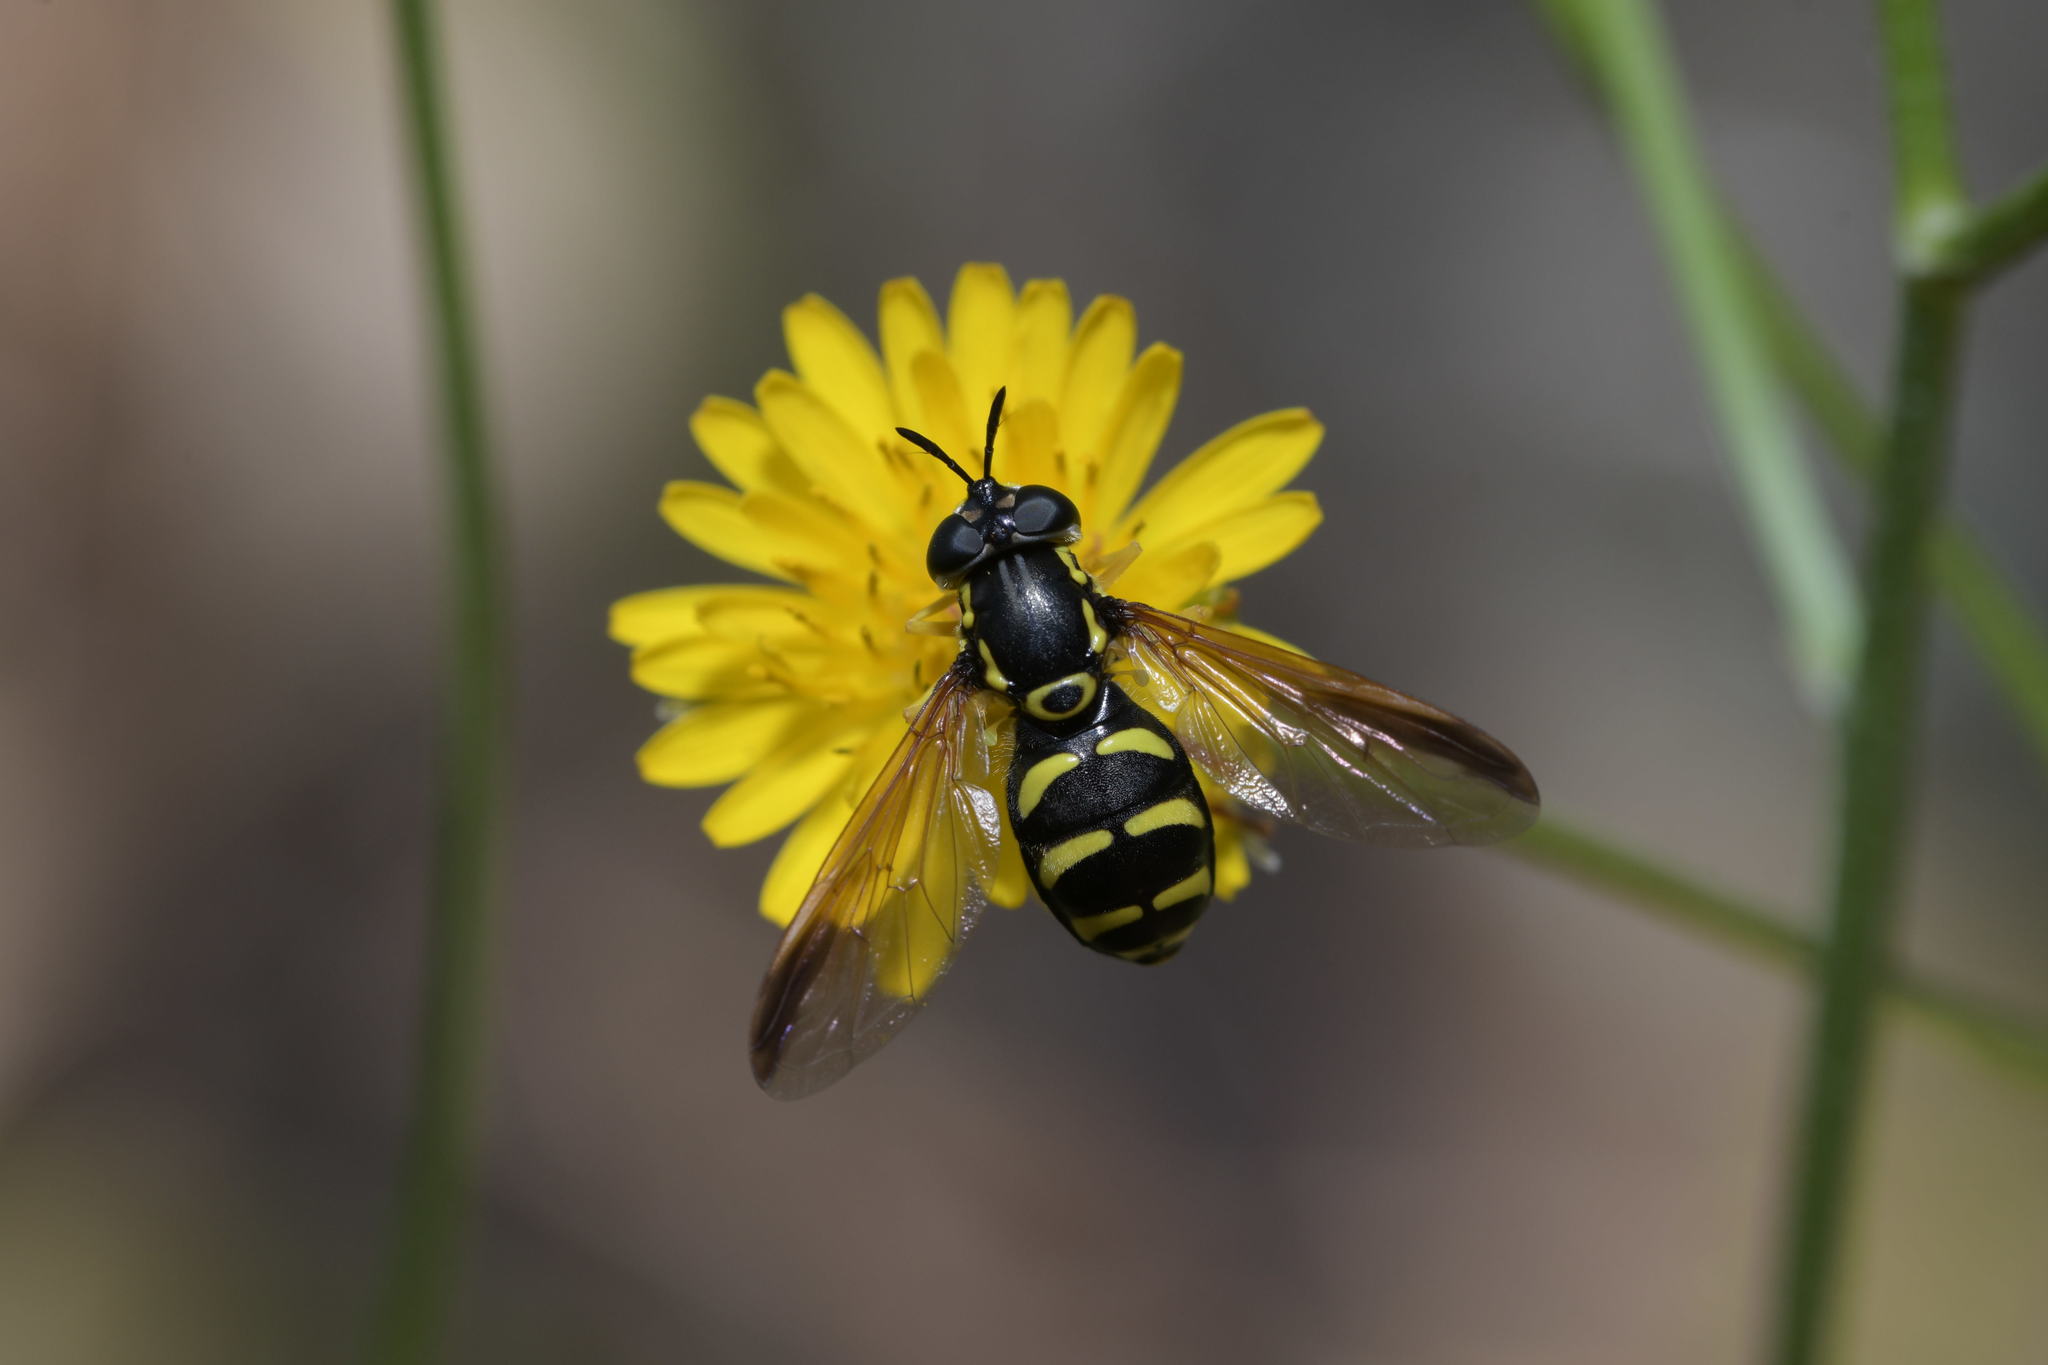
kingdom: Animalia
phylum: Arthropoda
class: Insecta
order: Diptera
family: Syrphidae
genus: Chrysotoxum
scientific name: Chrysotoxum vernale
